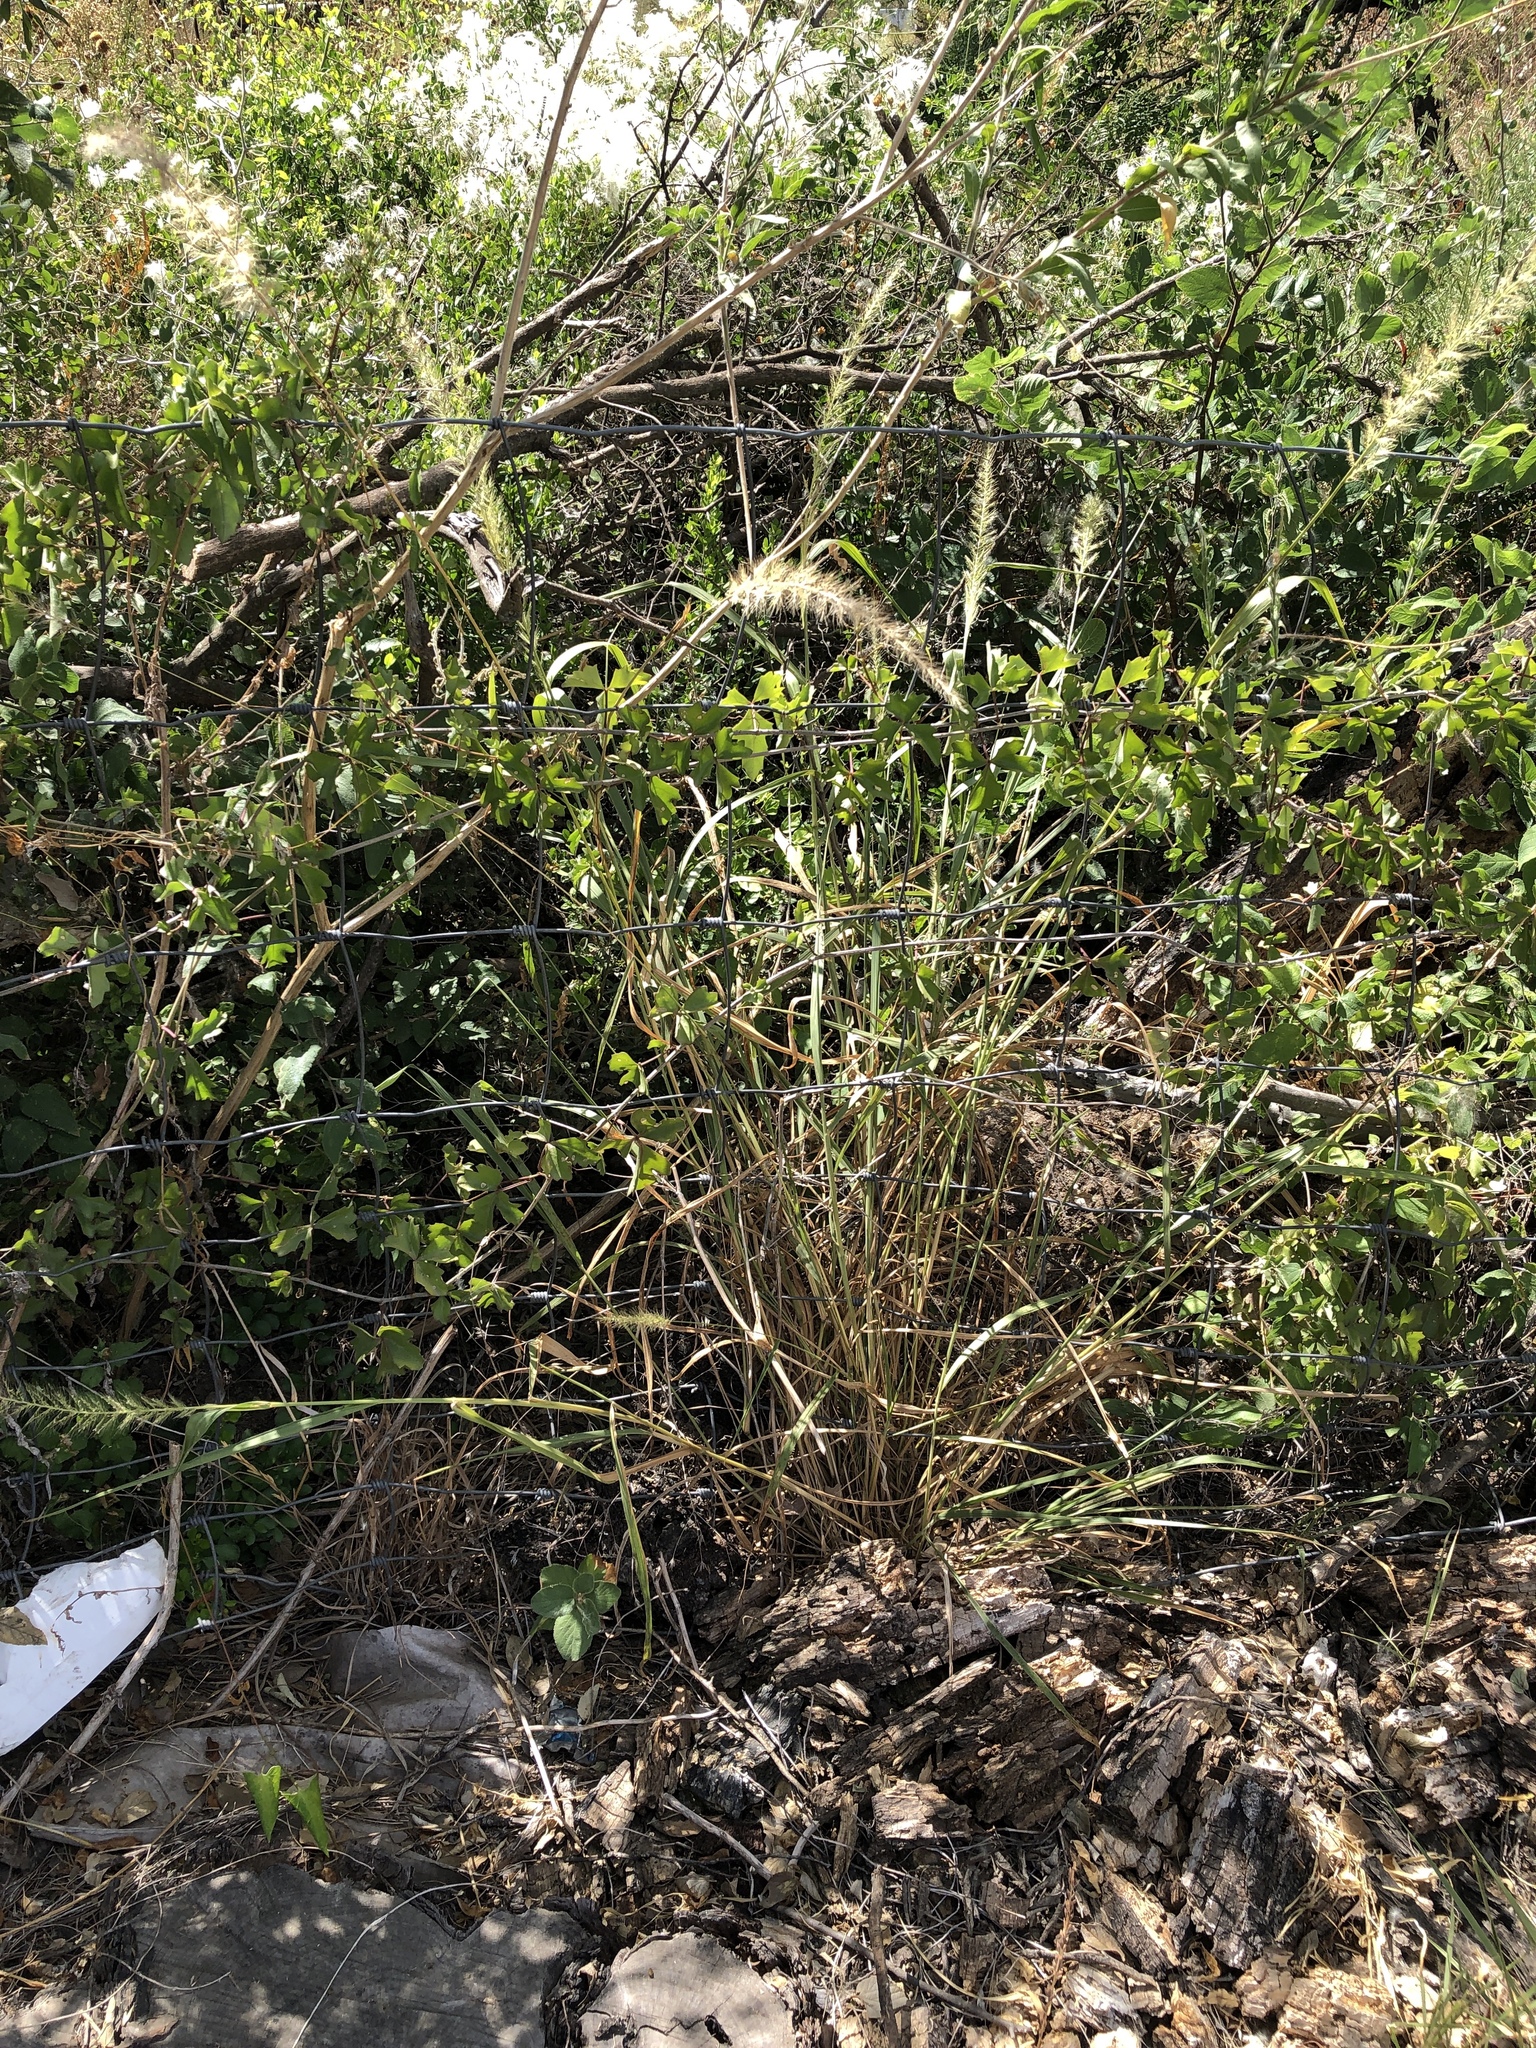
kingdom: Plantae
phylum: Tracheophyta
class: Liliopsida
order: Poales
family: Poaceae
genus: Setaria
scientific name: Setaria scheelei
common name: Southwestern bristle grass
